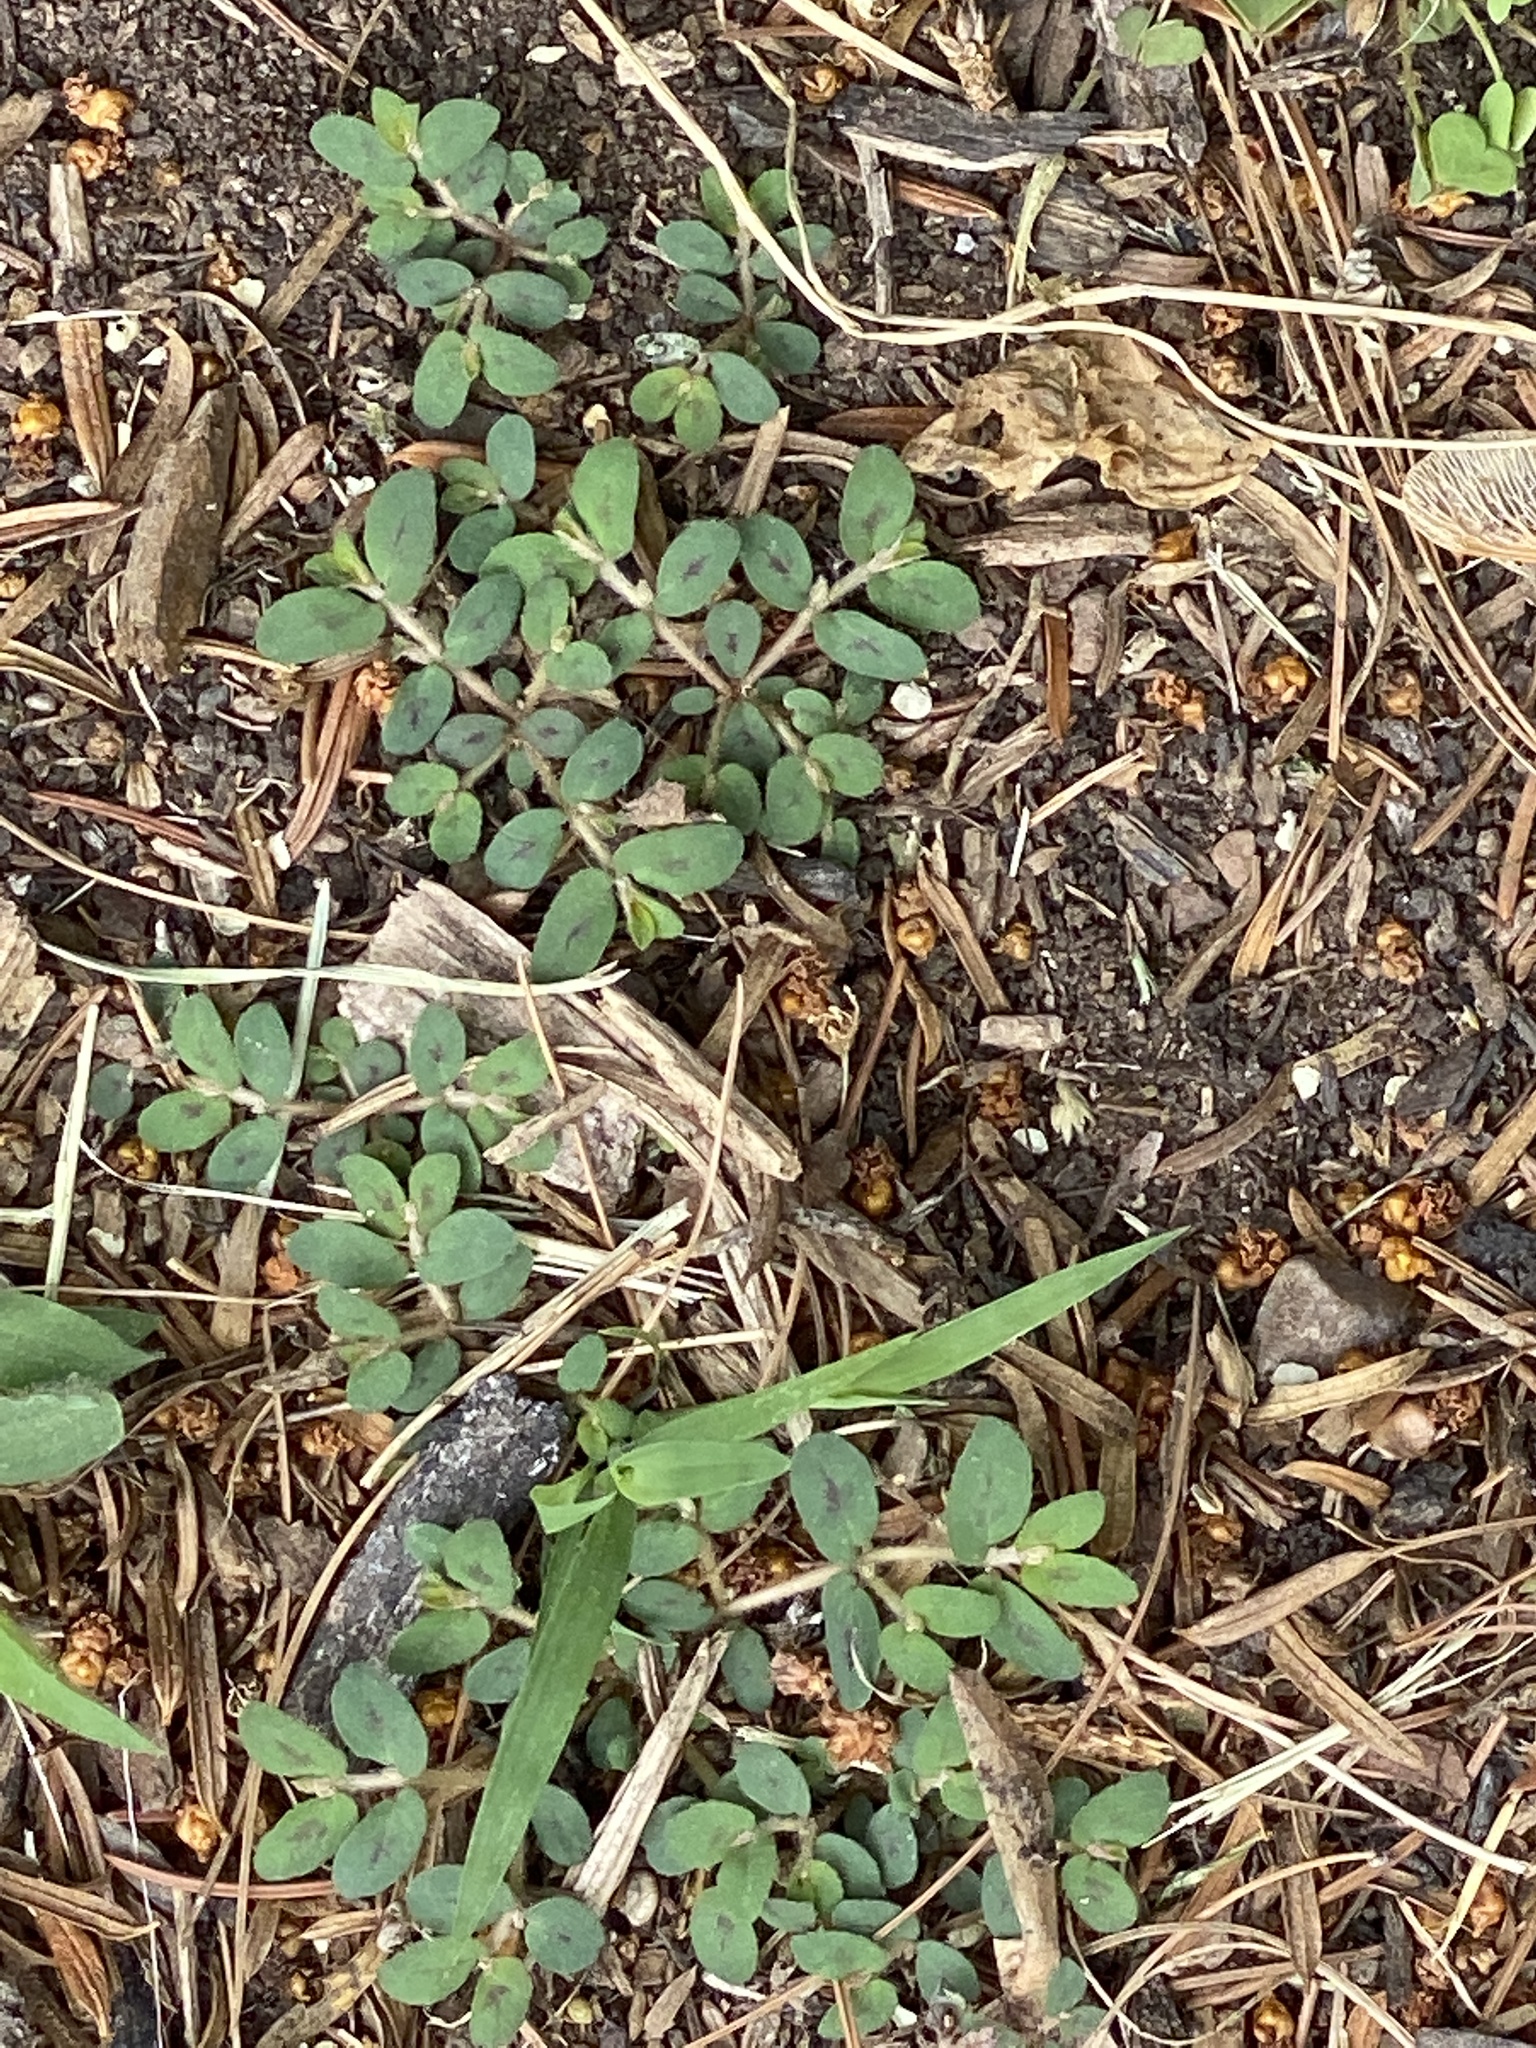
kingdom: Plantae
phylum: Tracheophyta
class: Magnoliopsida
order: Malpighiales
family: Euphorbiaceae
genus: Euphorbia
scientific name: Euphorbia maculata
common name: Spotted spurge
